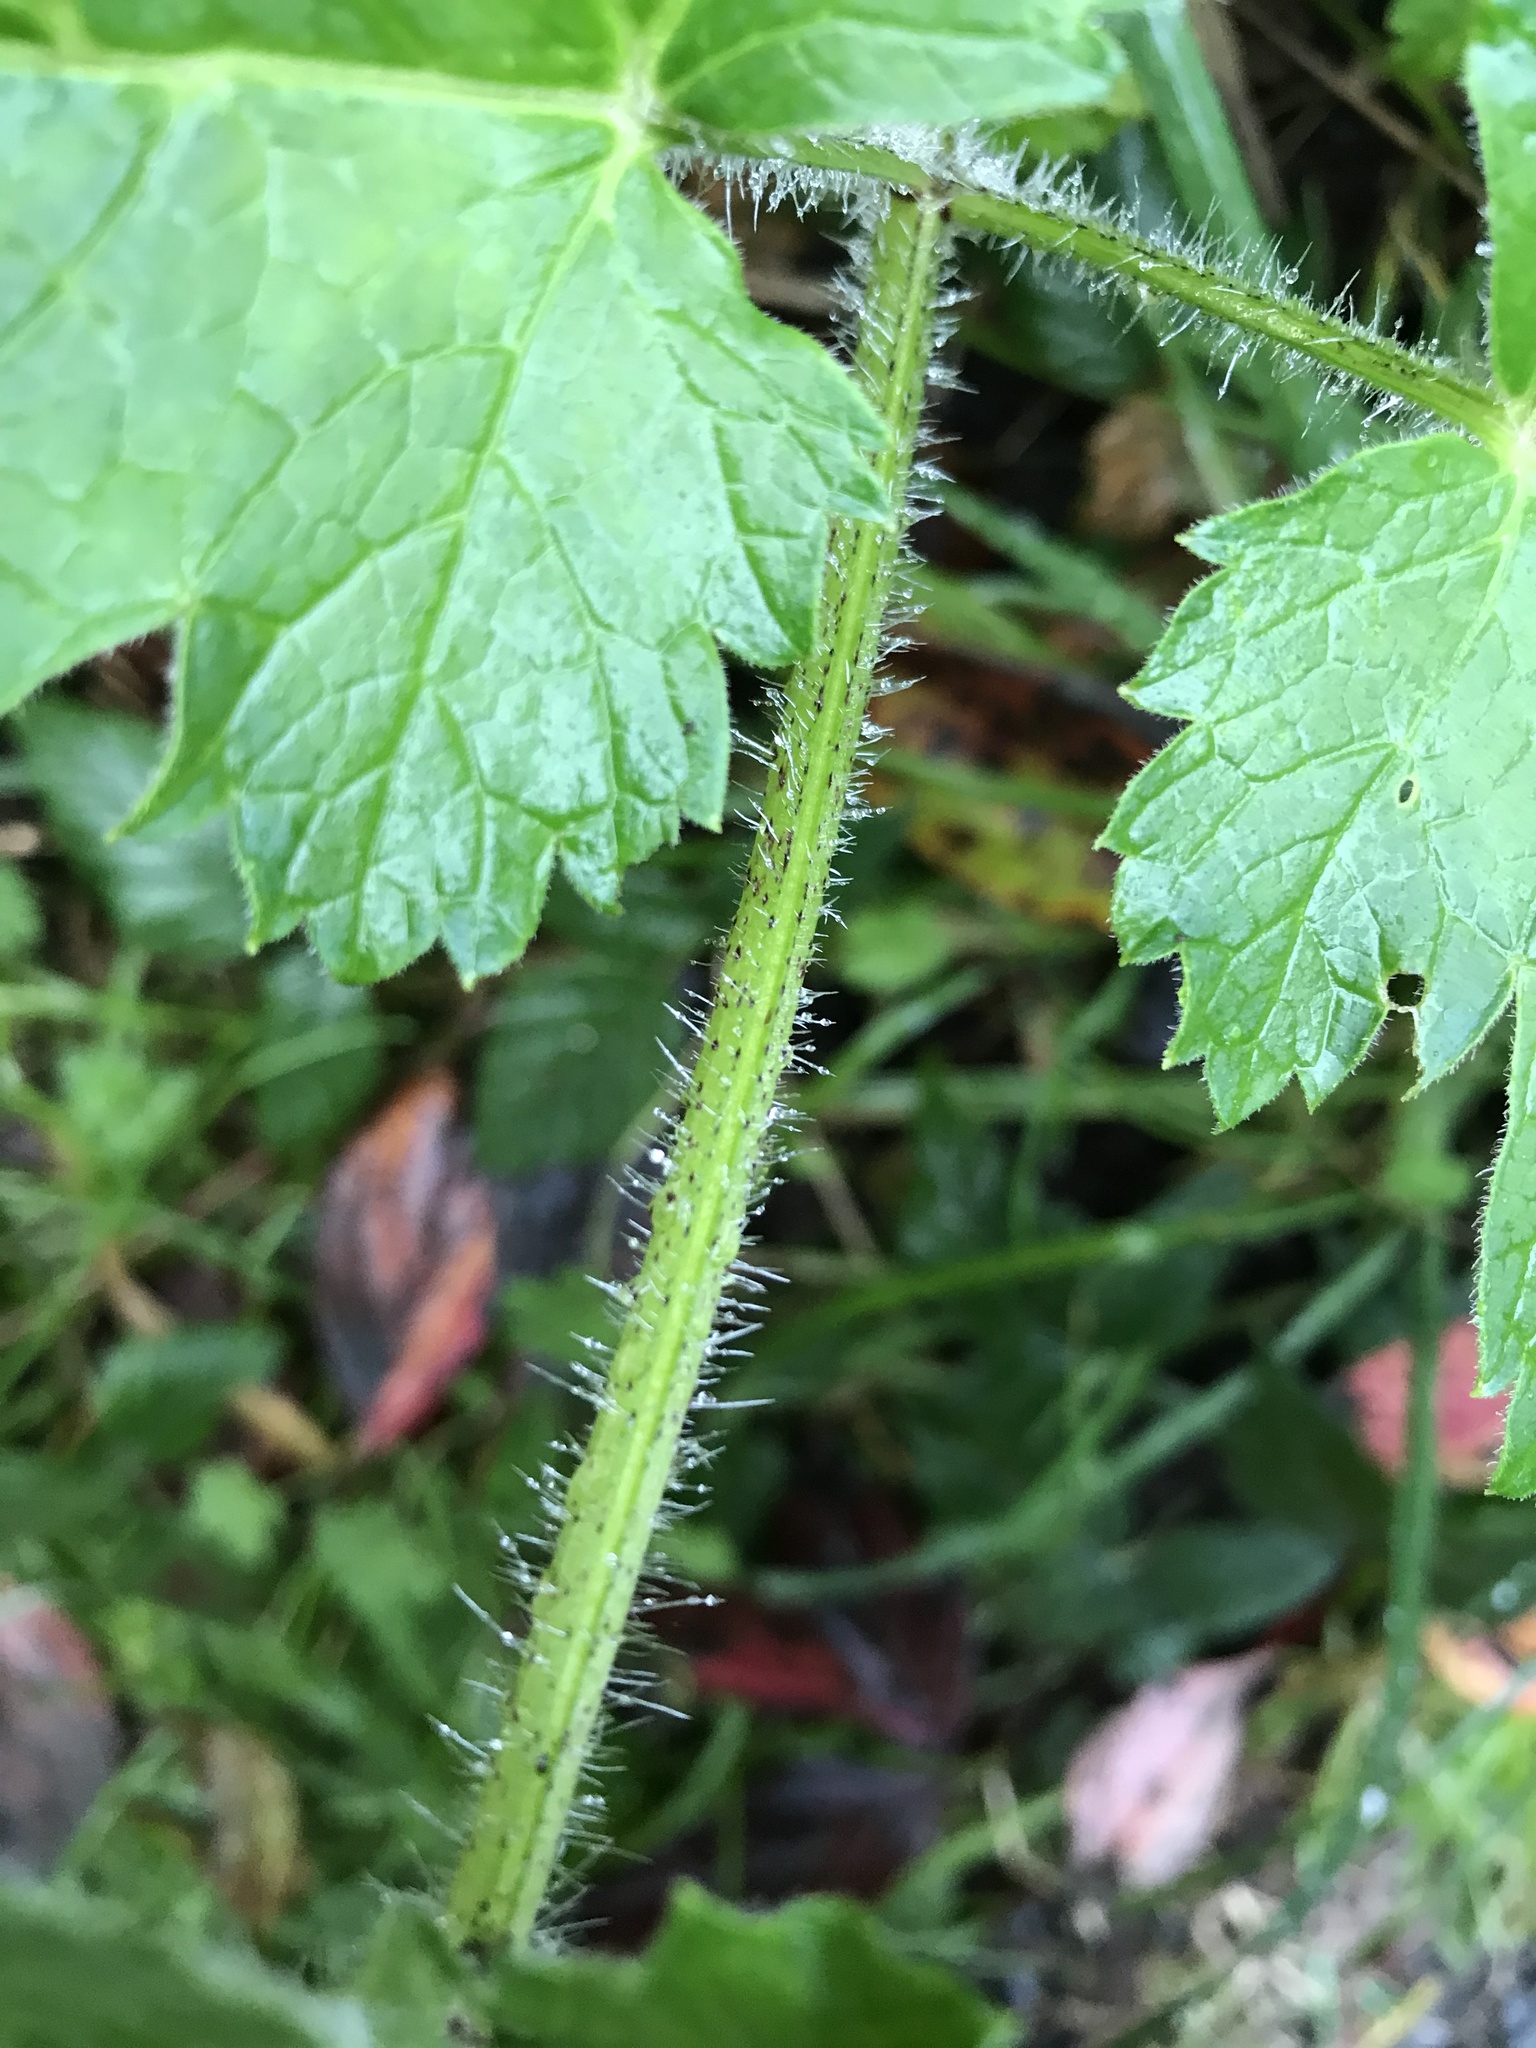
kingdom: Plantae
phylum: Tracheophyta
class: Magnoliopsida
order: Apiales
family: Apiaceae
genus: Heracleum
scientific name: Heracleum maximum
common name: American cow parsnip
